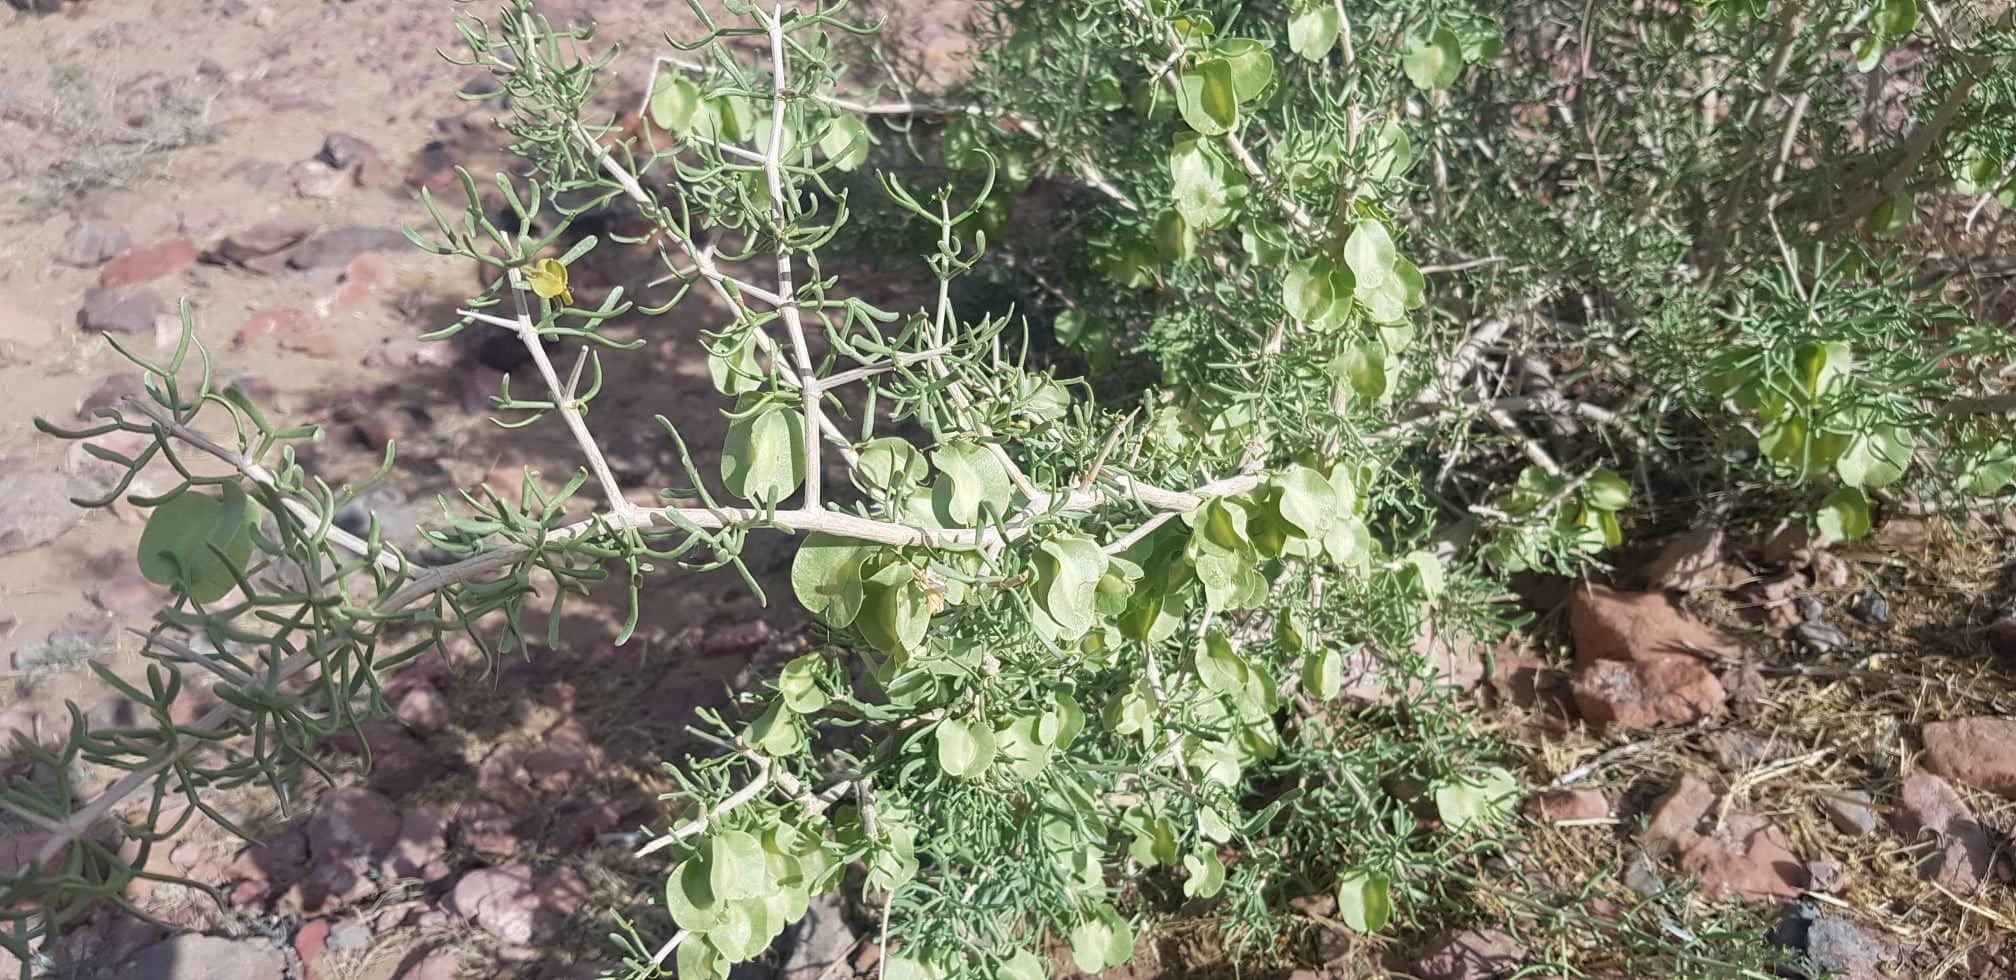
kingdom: Plantae
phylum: Tracheophyta
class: Magnoliopsida
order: Zygophyllales
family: Zygophyllaceae
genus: Zygophyllum
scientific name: Zygophyllum xanthoxylum
